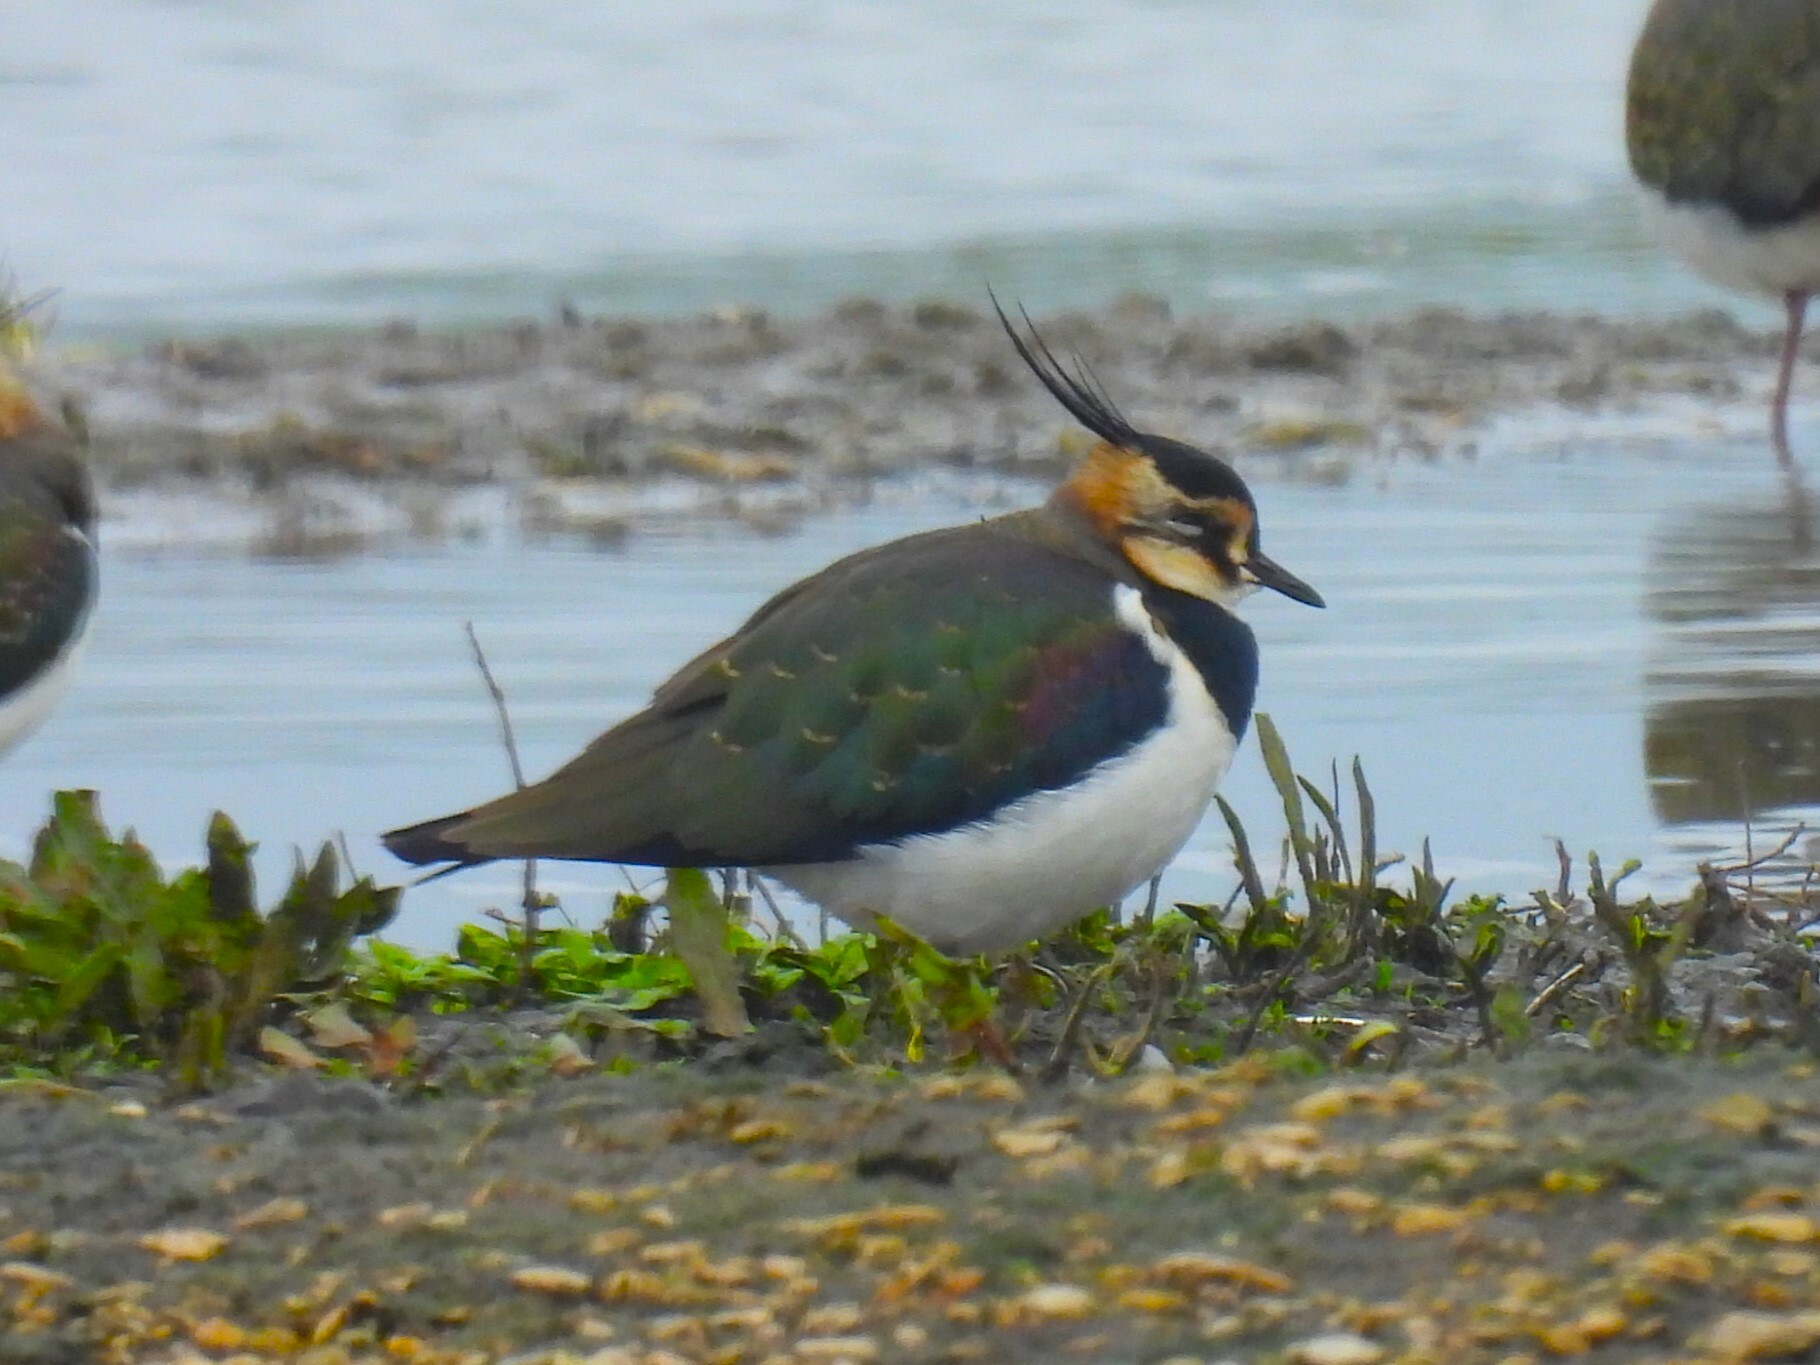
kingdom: Animalia
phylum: Chordata
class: Aves
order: Charadriiformes
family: Charadriidae
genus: Vanellus
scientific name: Vanellus vanellus
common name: Northern lapwing
